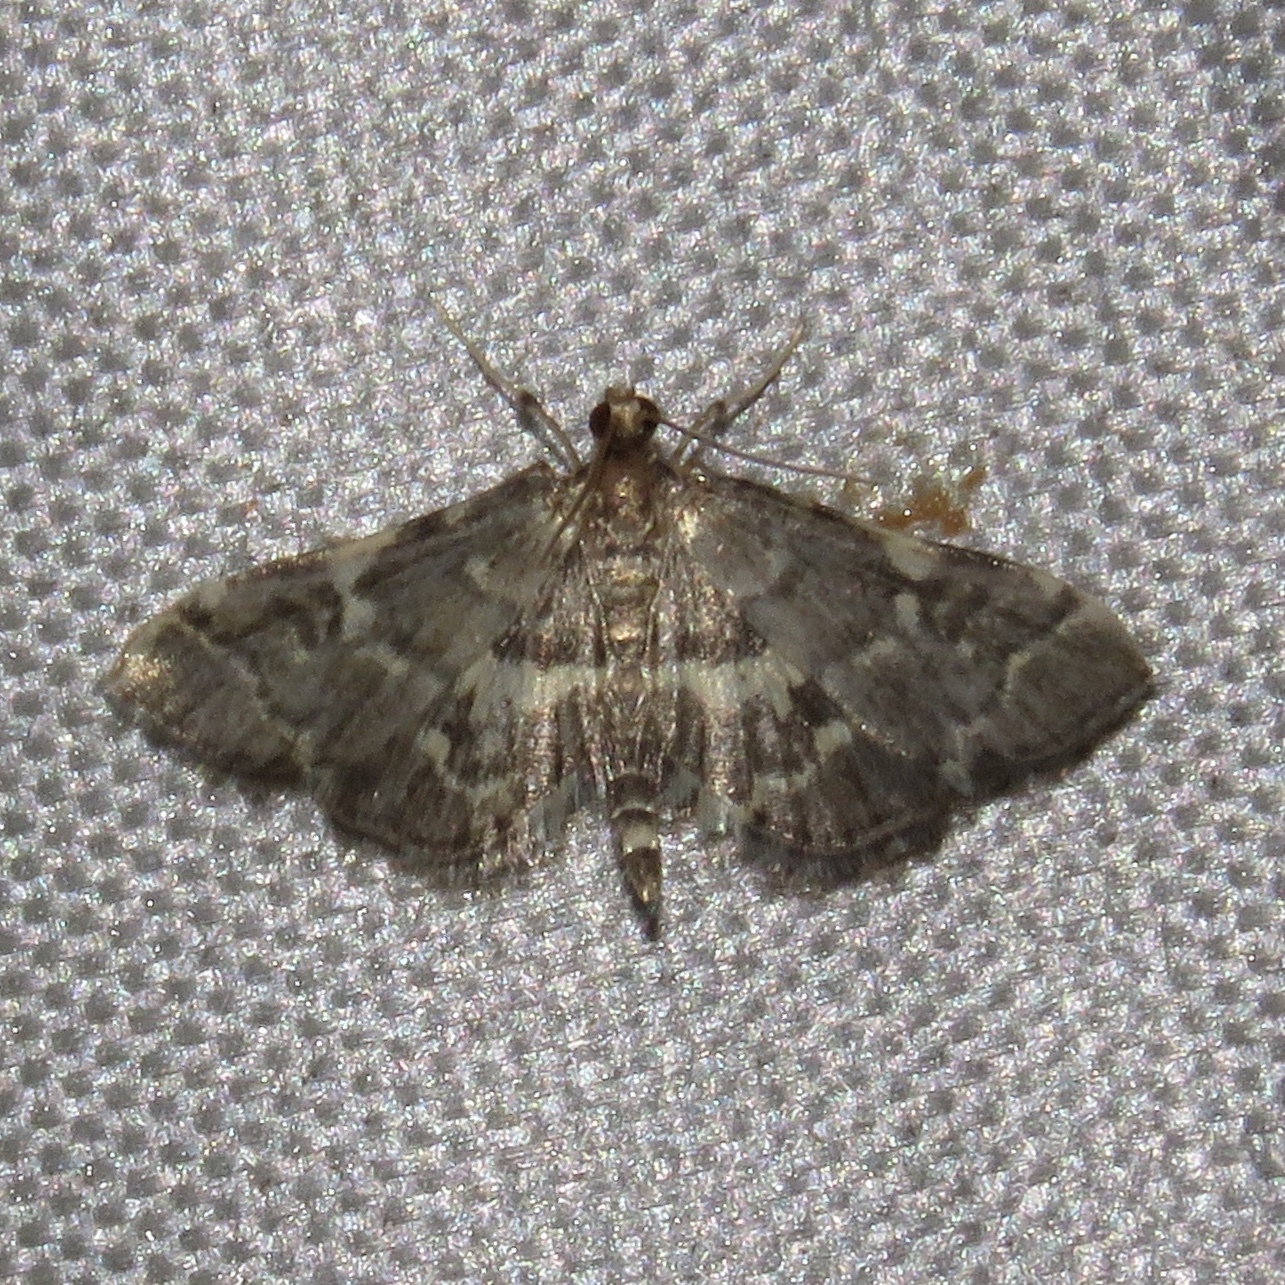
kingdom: Animalia
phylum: Arthropoda
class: Insecta
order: Lepidoptera
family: Crambidae
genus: Anageshna
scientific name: Anageshna primordialis
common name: Yellow-spotted webworm moth
